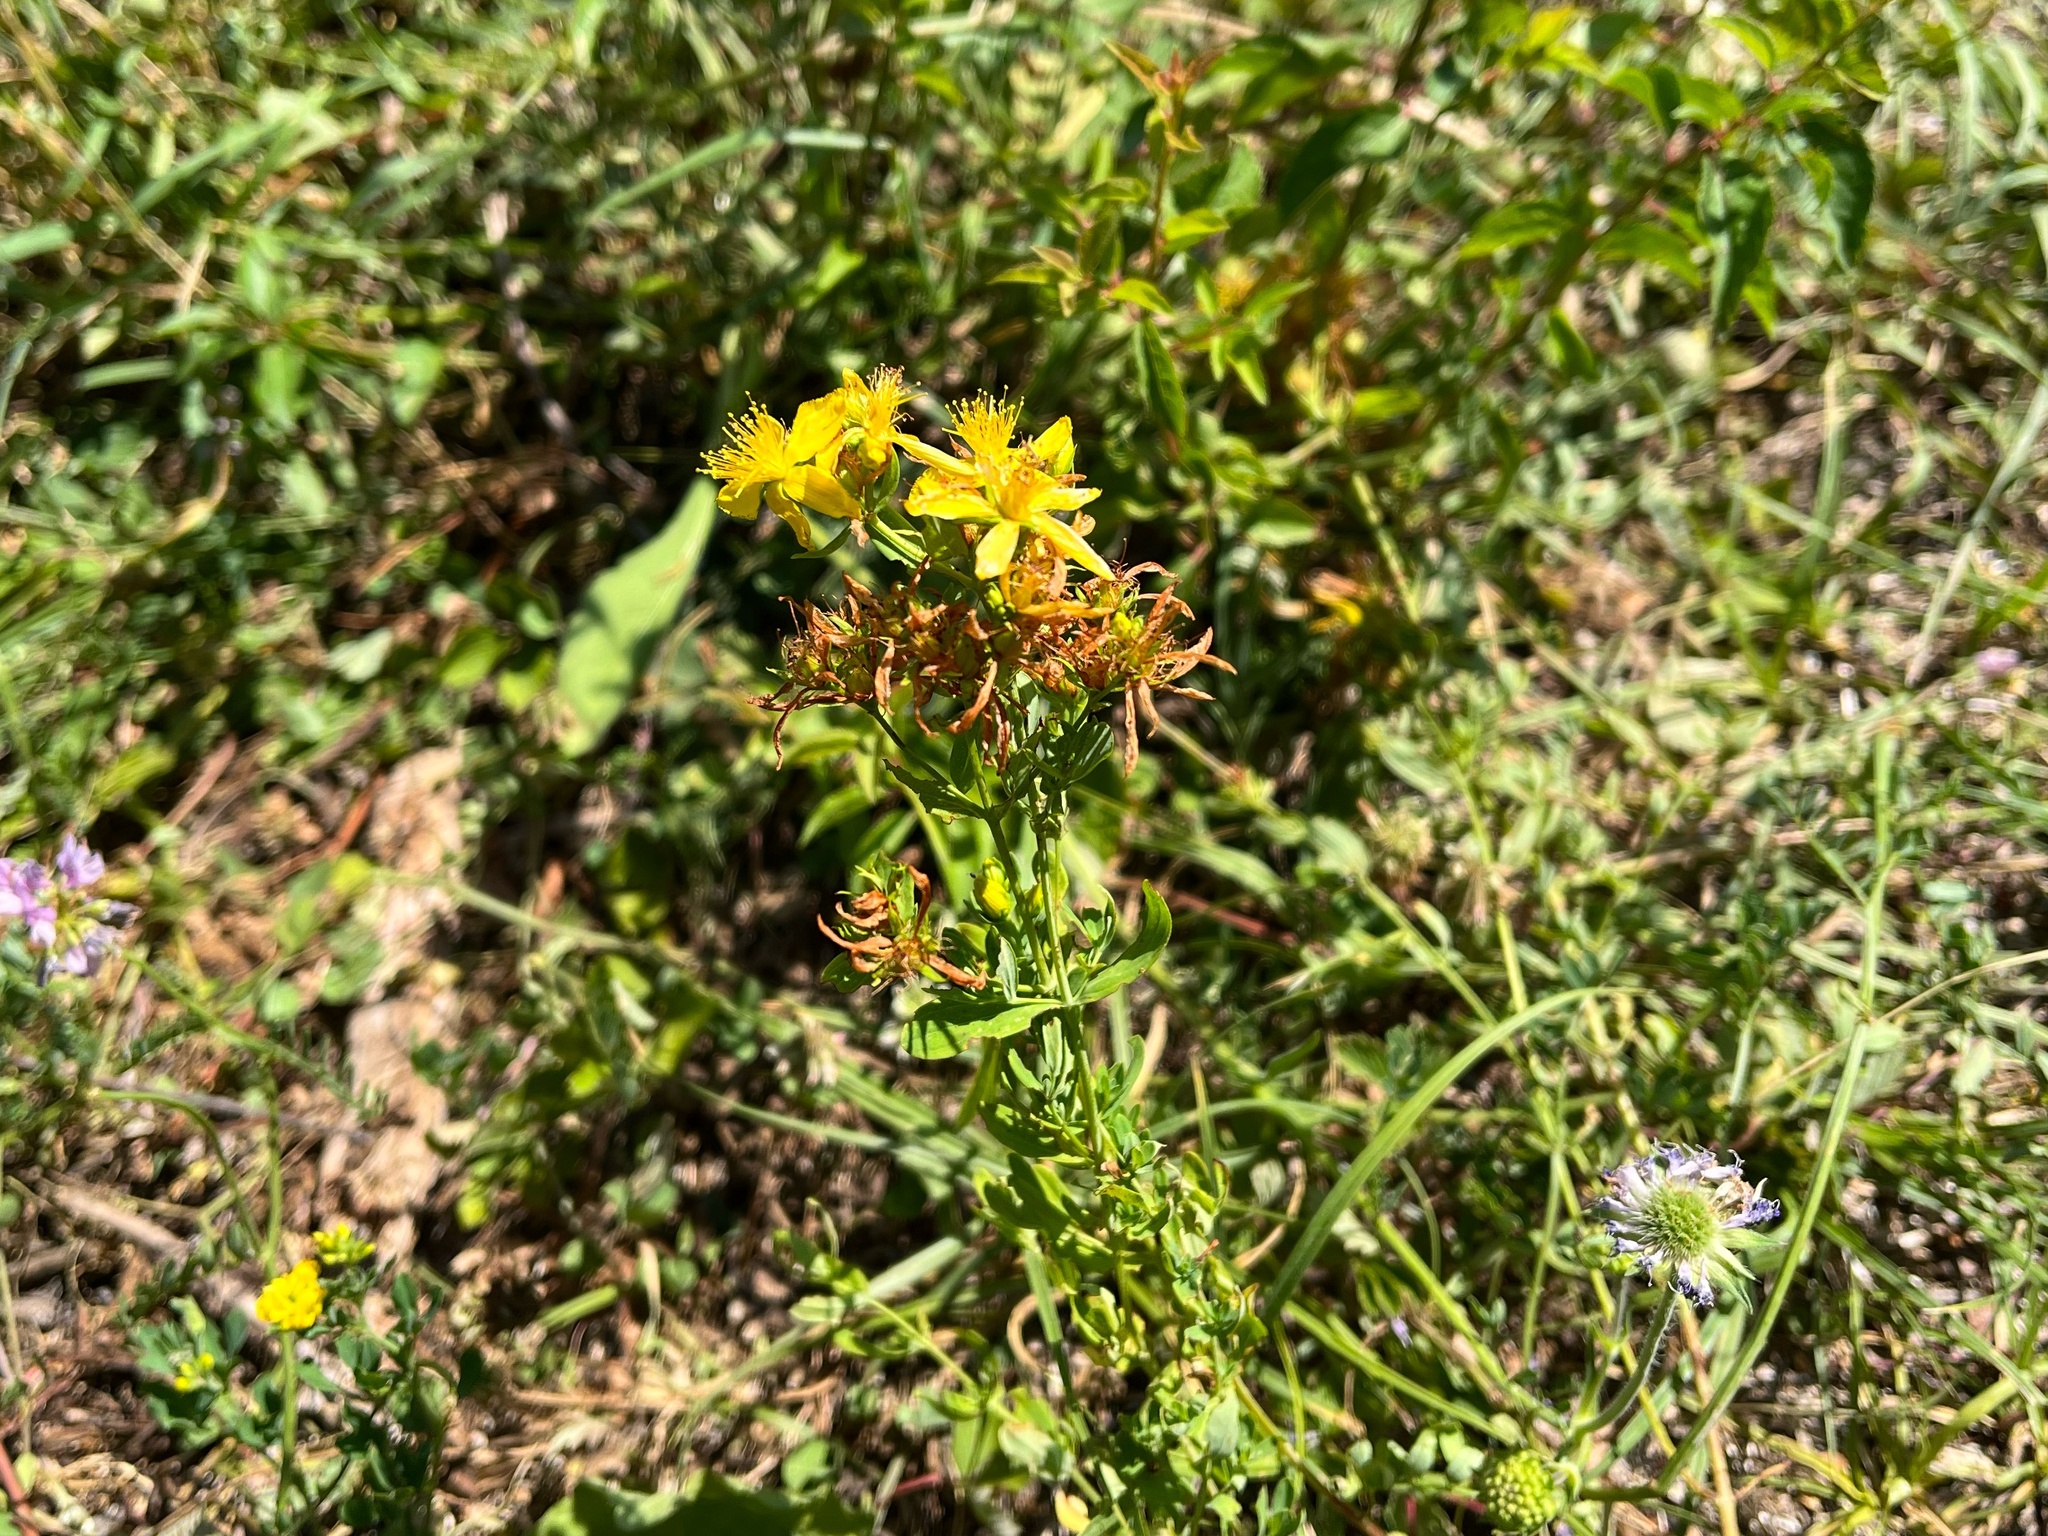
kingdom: Plantae
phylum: Tracheophyta
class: Magnoliopsida
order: Malpighiales
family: Hypericaceae
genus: Hypericum
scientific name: Hypericum perforatum
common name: Common st. johnswort
